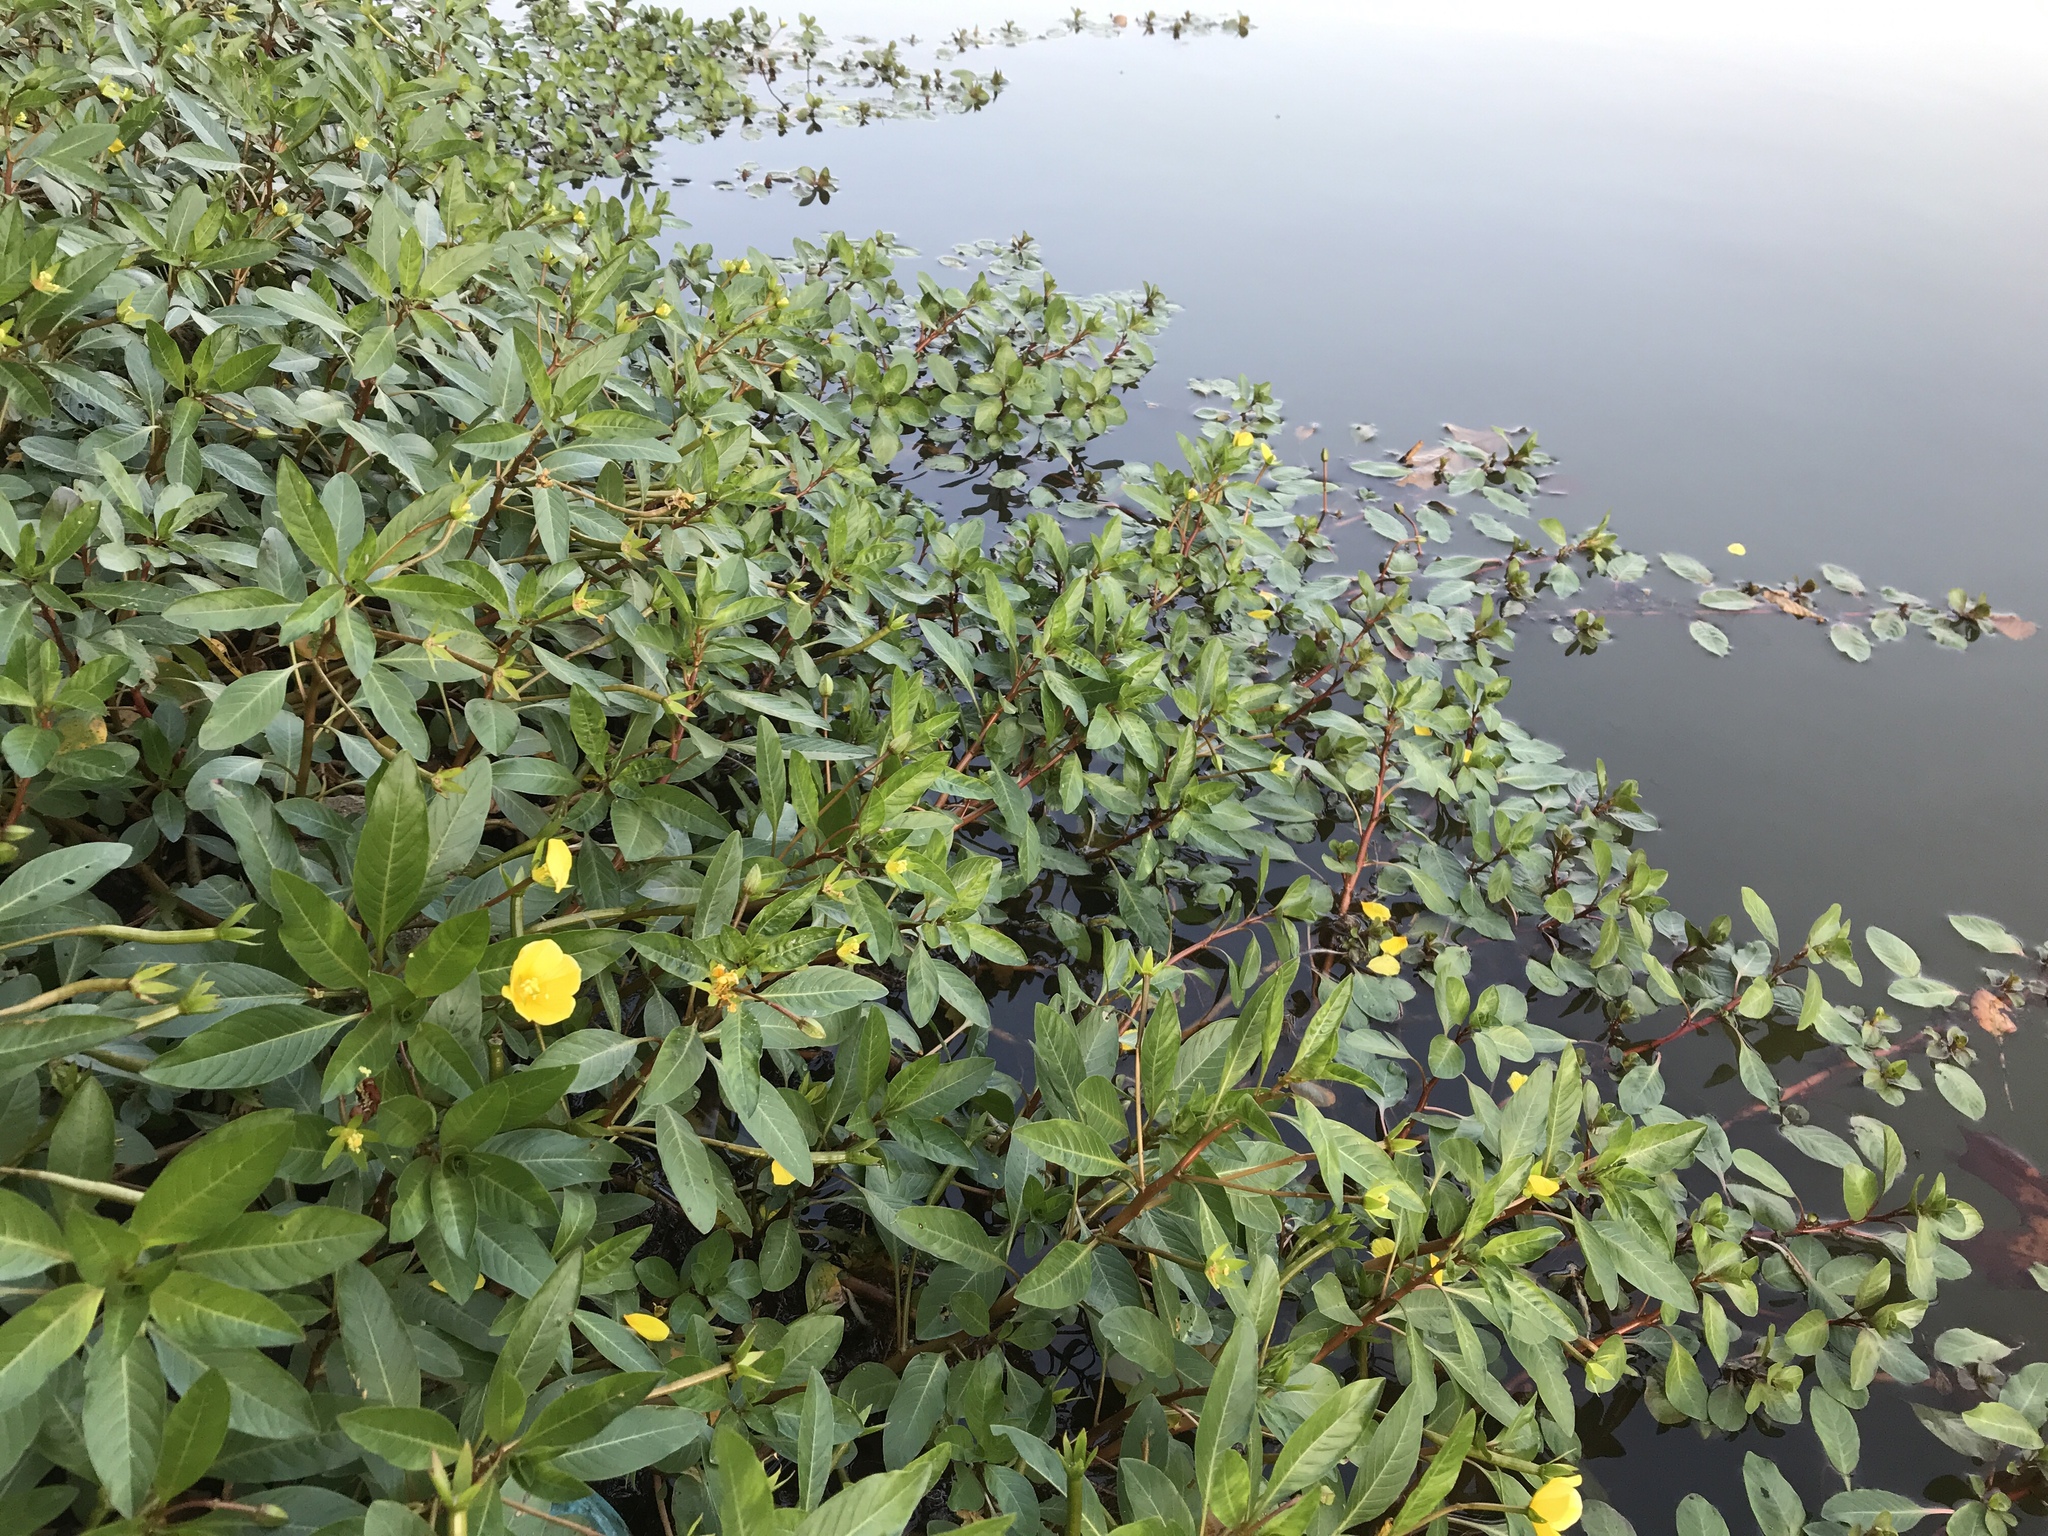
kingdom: Plantae
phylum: Tracheophyta
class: Magnoliopsida
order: Myrtales
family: Onagraceae
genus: Ludwigia
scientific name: Ludwigia peploides
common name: Floating primrose-willow
